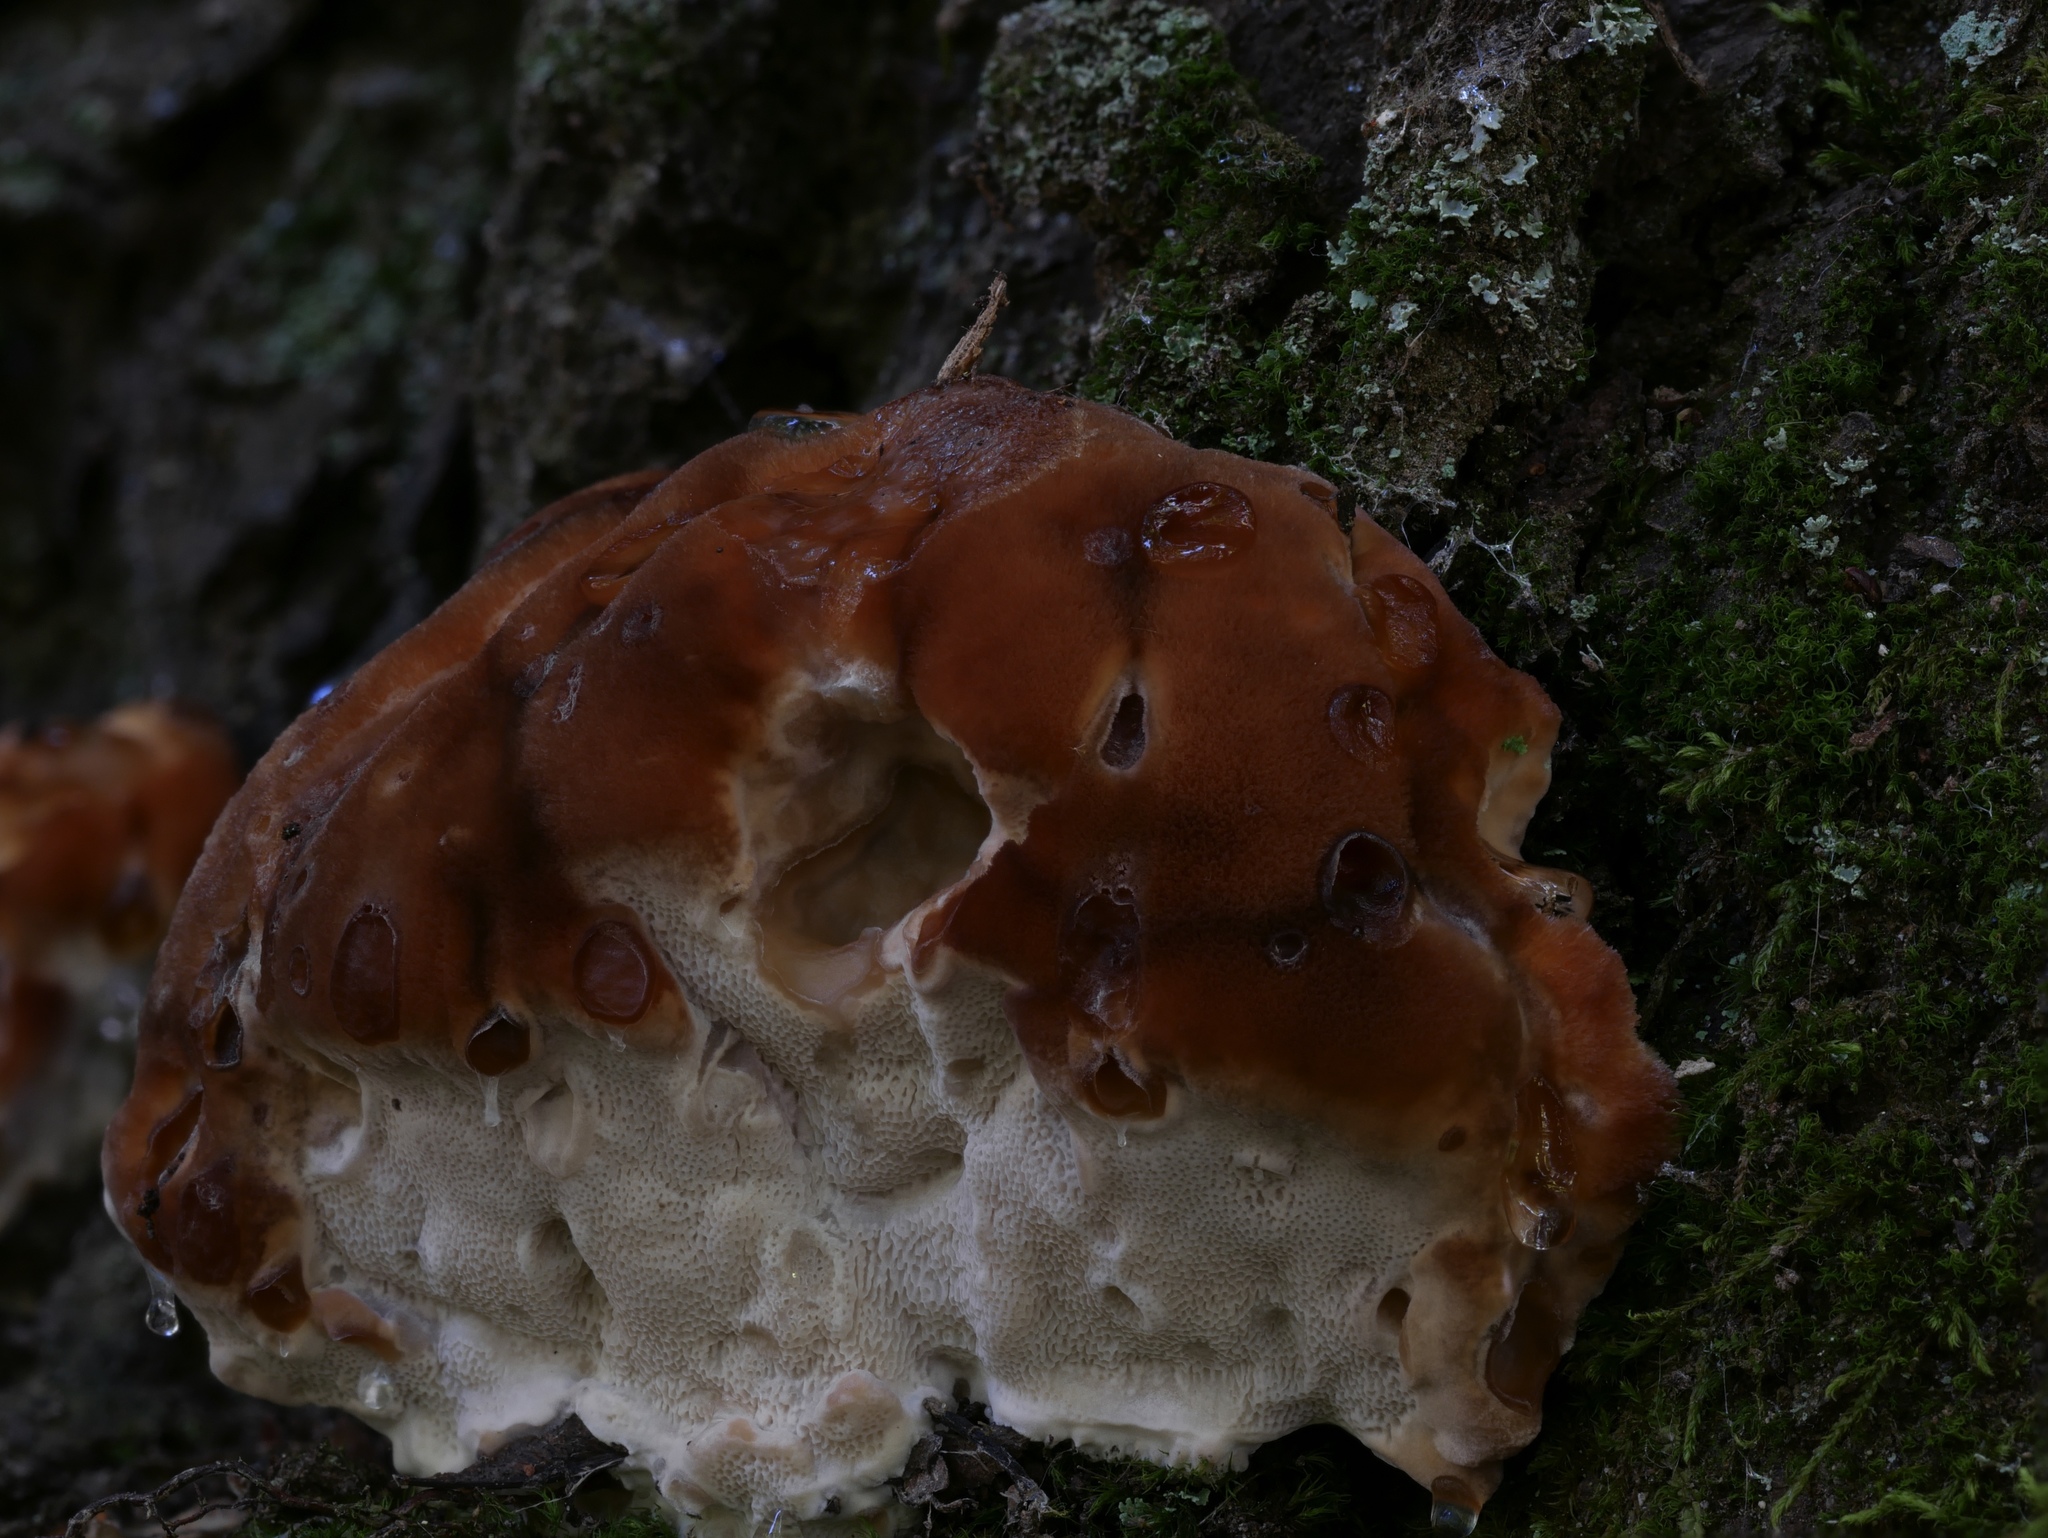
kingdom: Fungi
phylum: Basidiomycota
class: Agaricomycetes
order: Polyporales
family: Fomitopsidaceae
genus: Niveoporofomes
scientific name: Niveoporofomes spraguei
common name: Green cheese polypore
